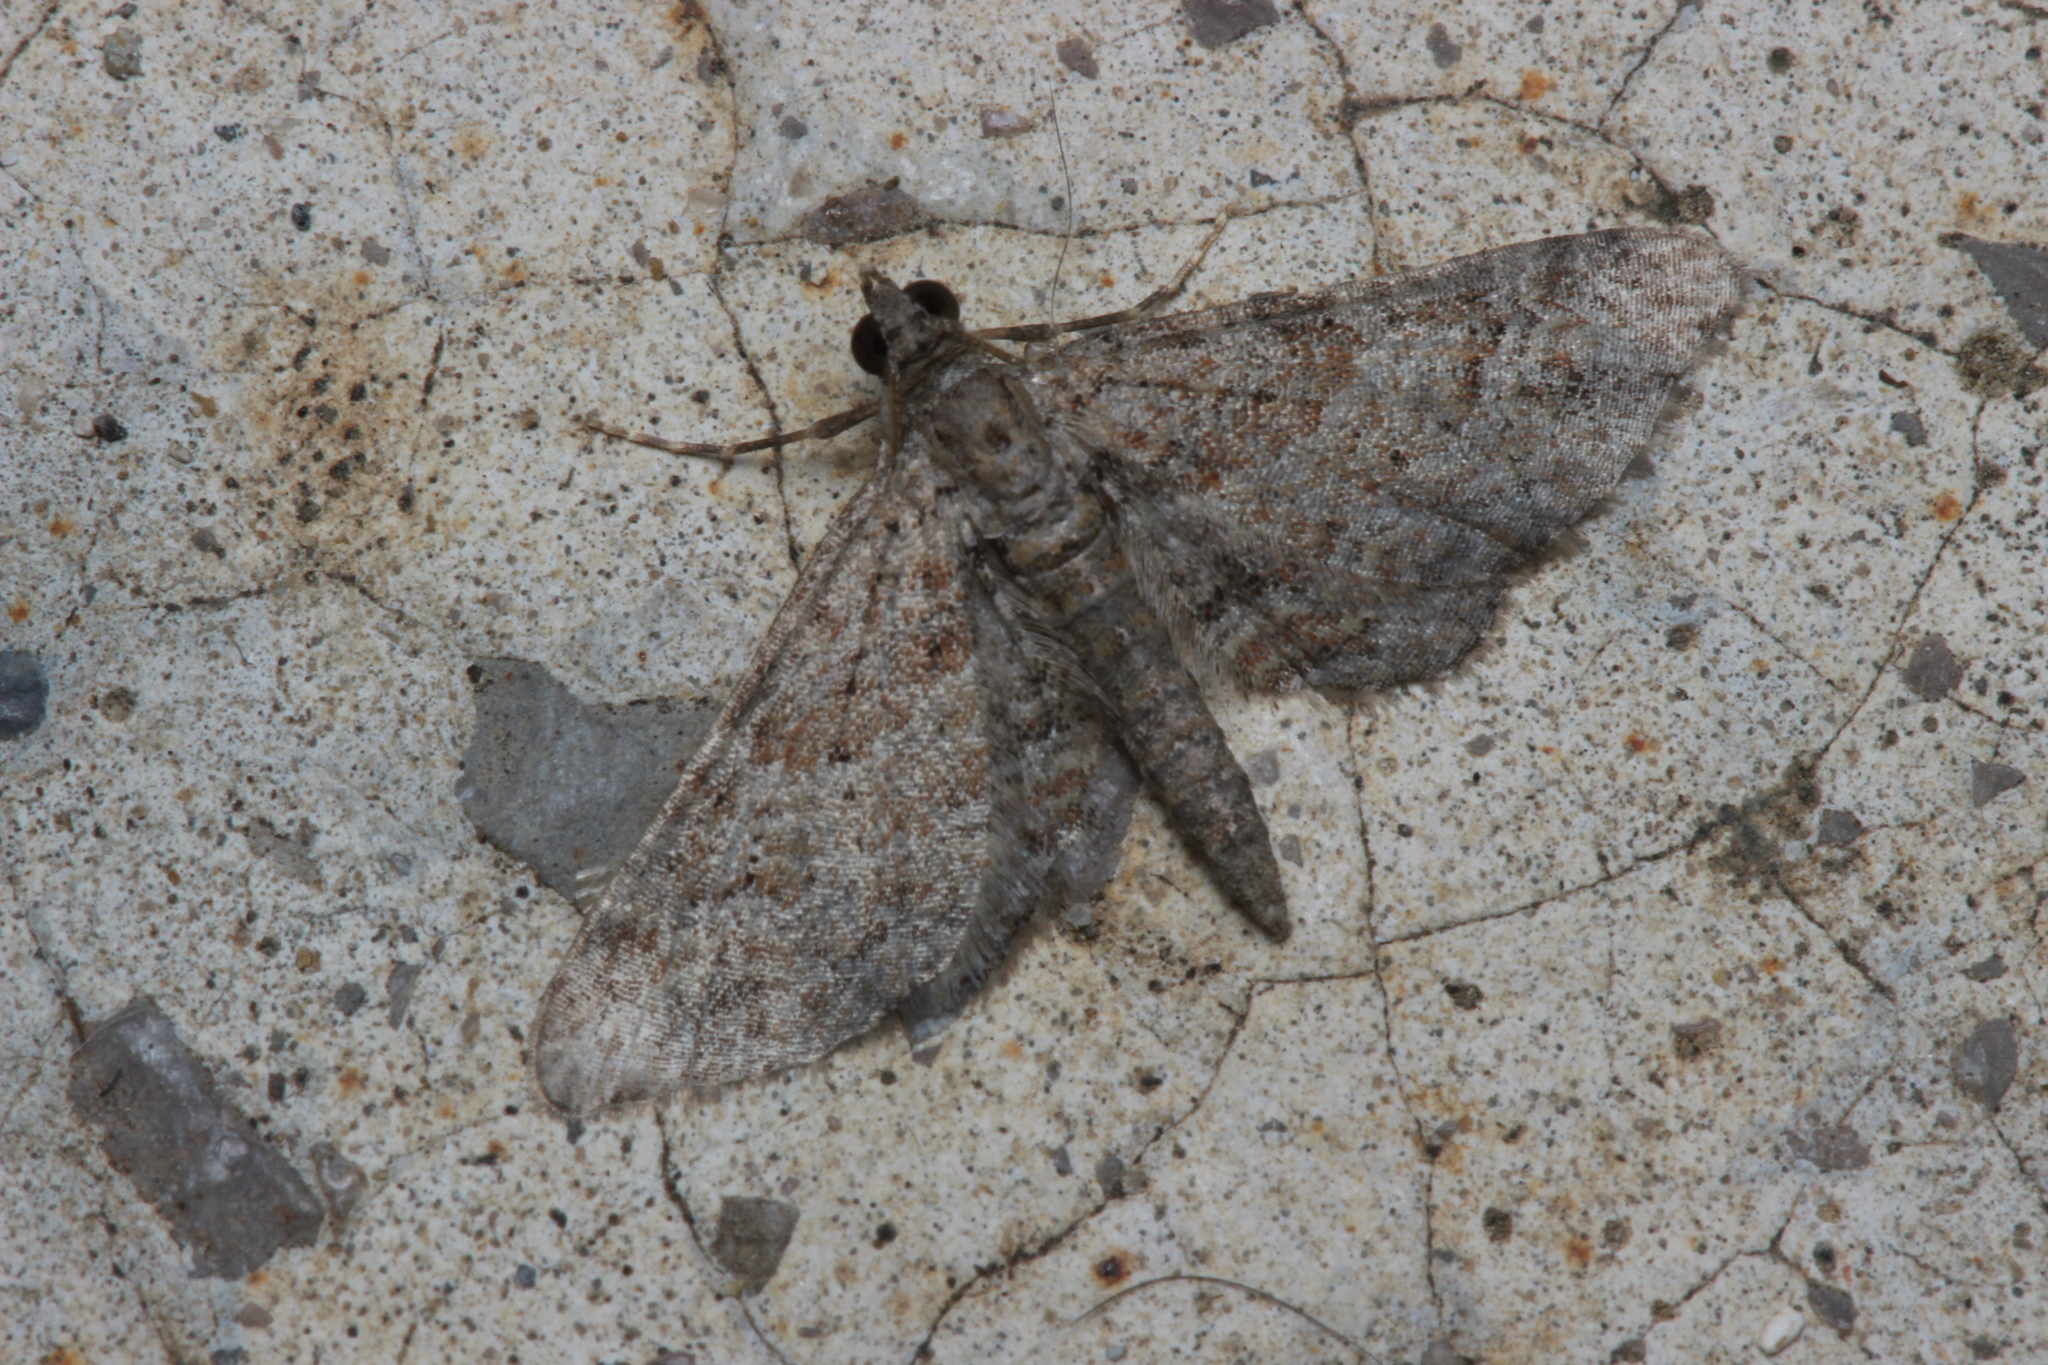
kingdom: Animalia
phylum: Arthropoda
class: Insecta
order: Lepidoptera
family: Geometridae
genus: Gymnoscelis
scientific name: Gymnoscelis rufifasciata
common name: Double-striped pug
